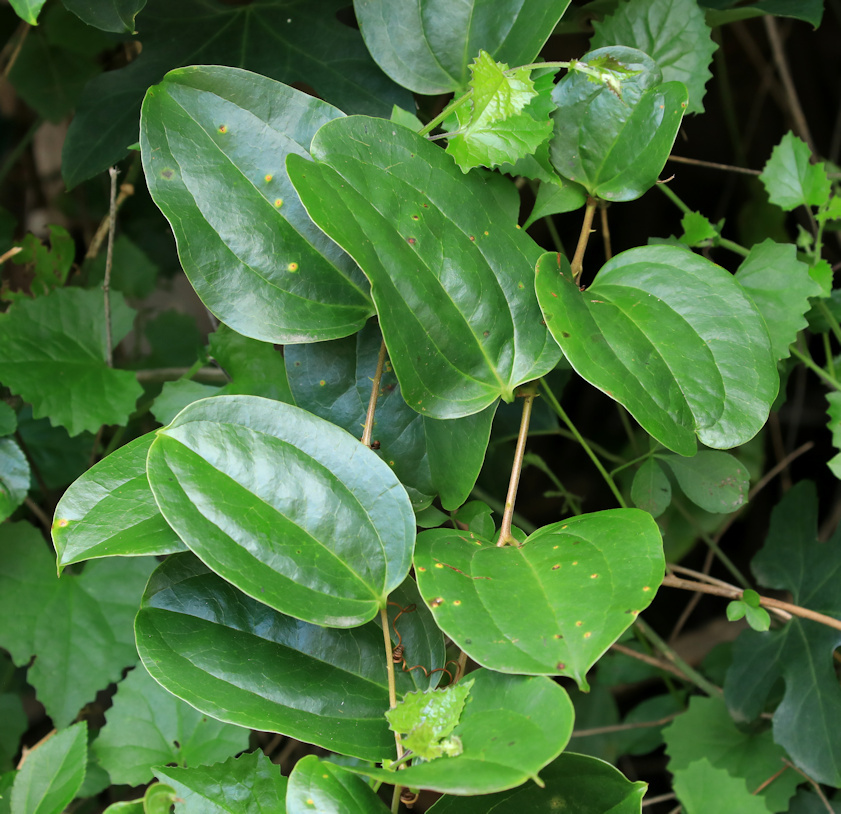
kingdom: Plantae
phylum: Tracheophyta
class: Liliopsida
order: Liliales
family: Smilacaceae
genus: Smilax
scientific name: Smilax anceps
